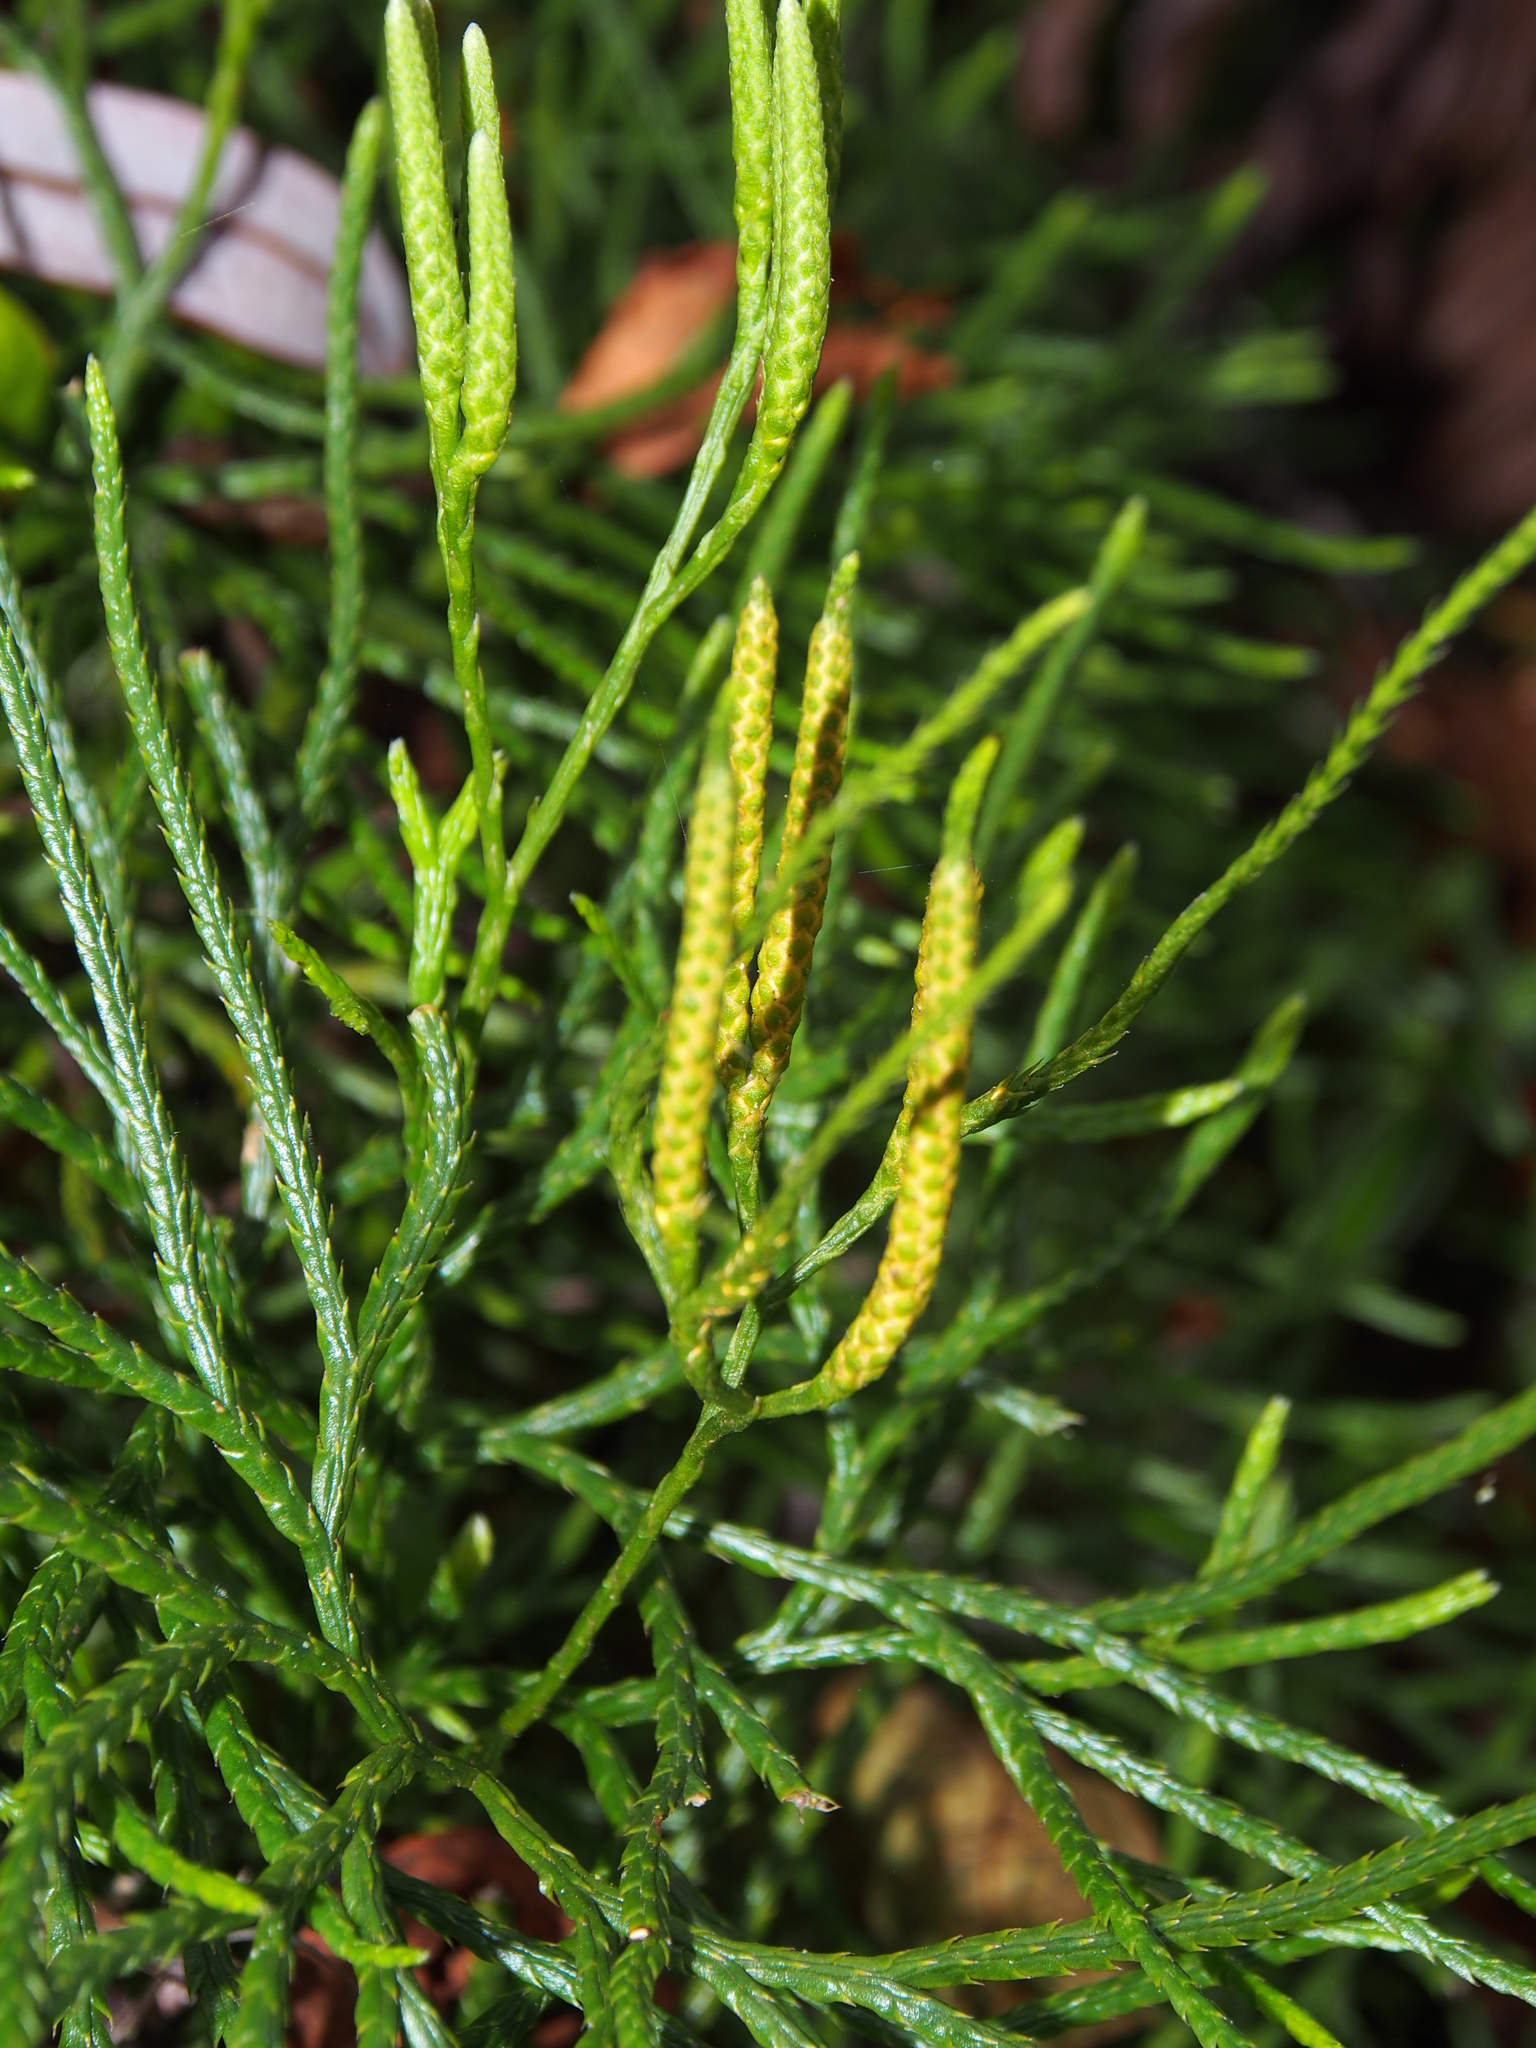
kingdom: Plantae
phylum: Tracheophyta
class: Lycopodiopsida
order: Lycopodiales
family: Lycopodiaceae
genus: Diphasiastrum
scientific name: Diphasiastrum thyoides
